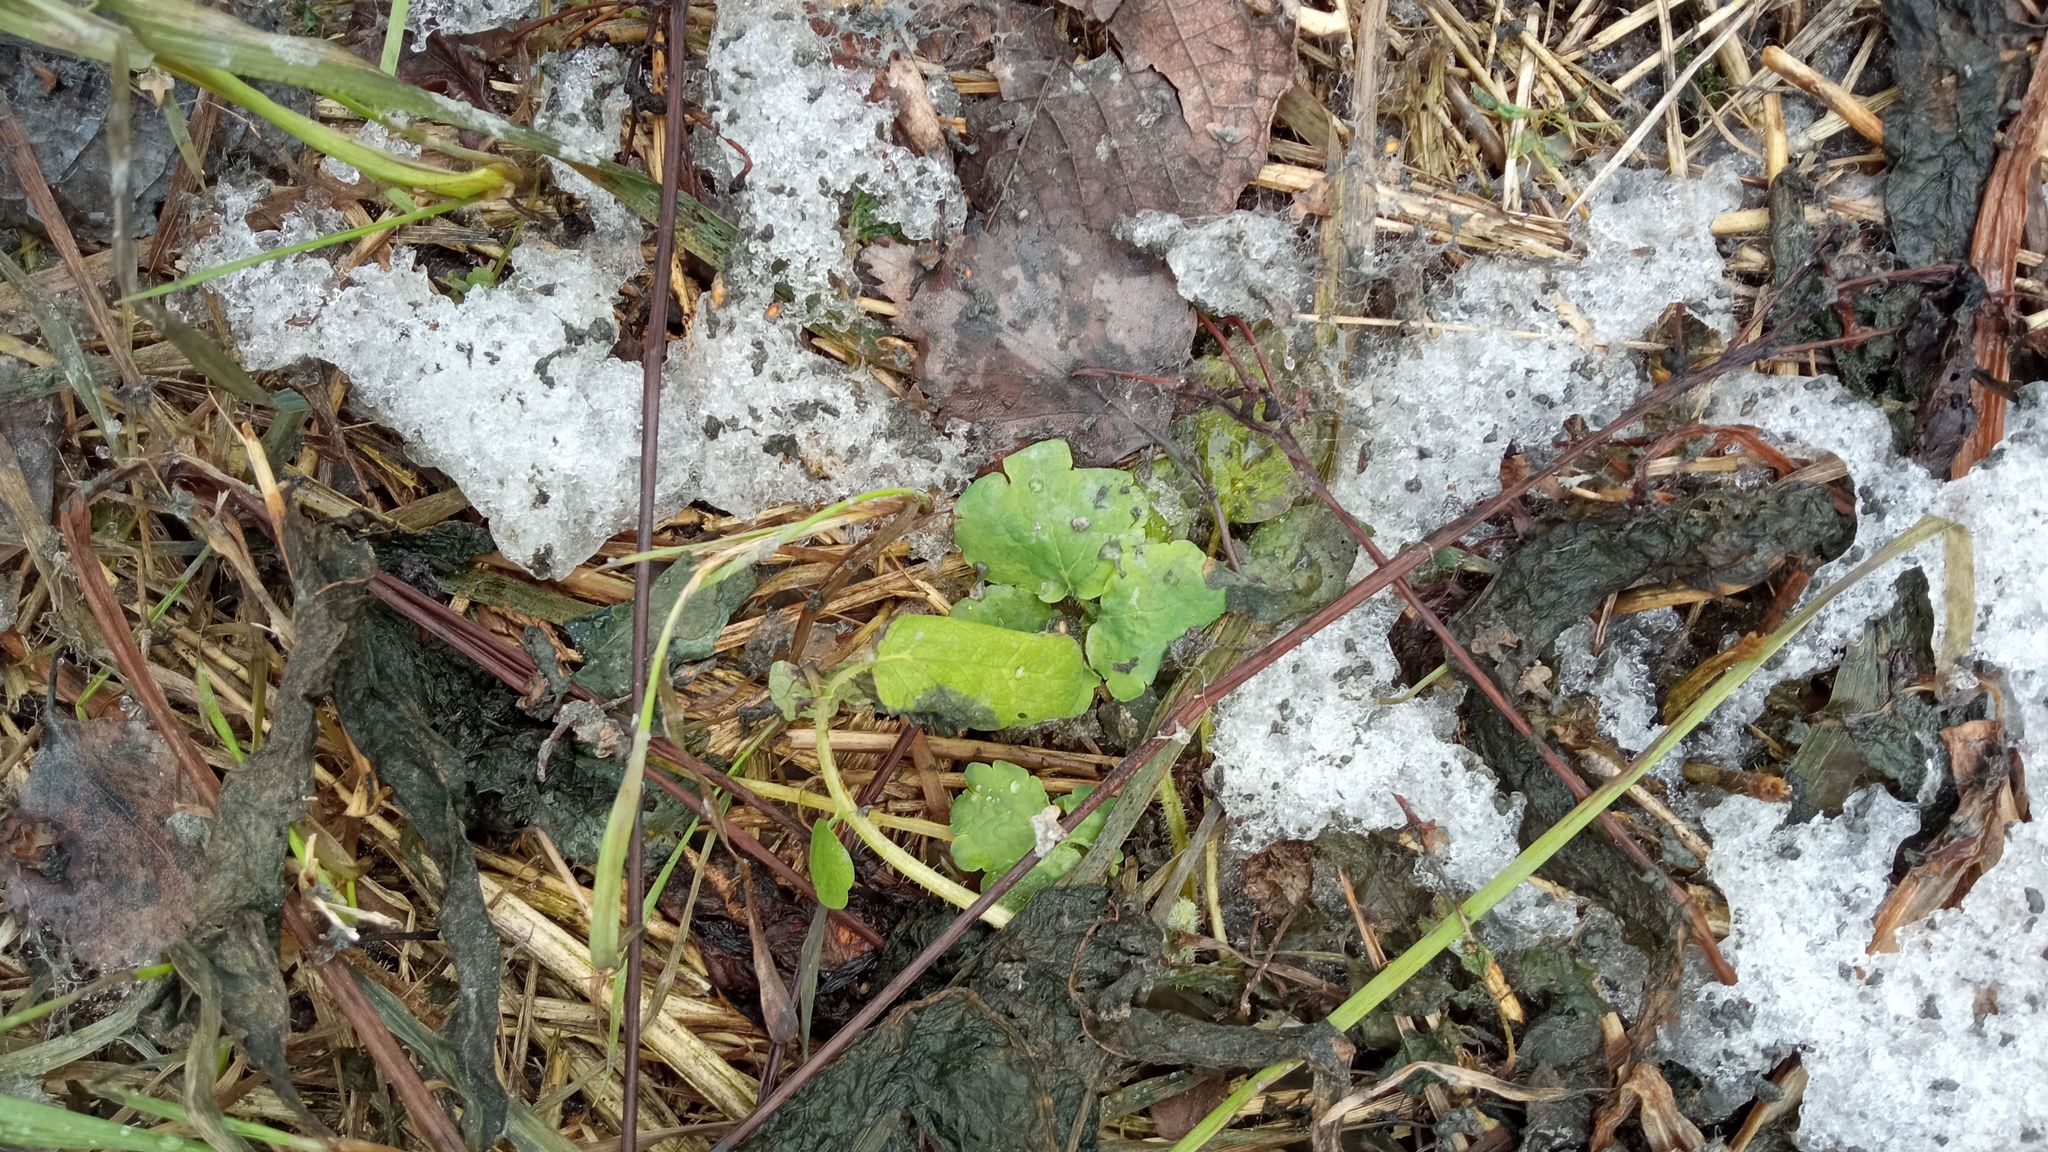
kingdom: Plantae
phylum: Tracheophyta
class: Magnoliopsida
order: Ranunculales
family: Papaveraceae
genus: Chelidonium
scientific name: Chelidonium majus
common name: Greater celandine
